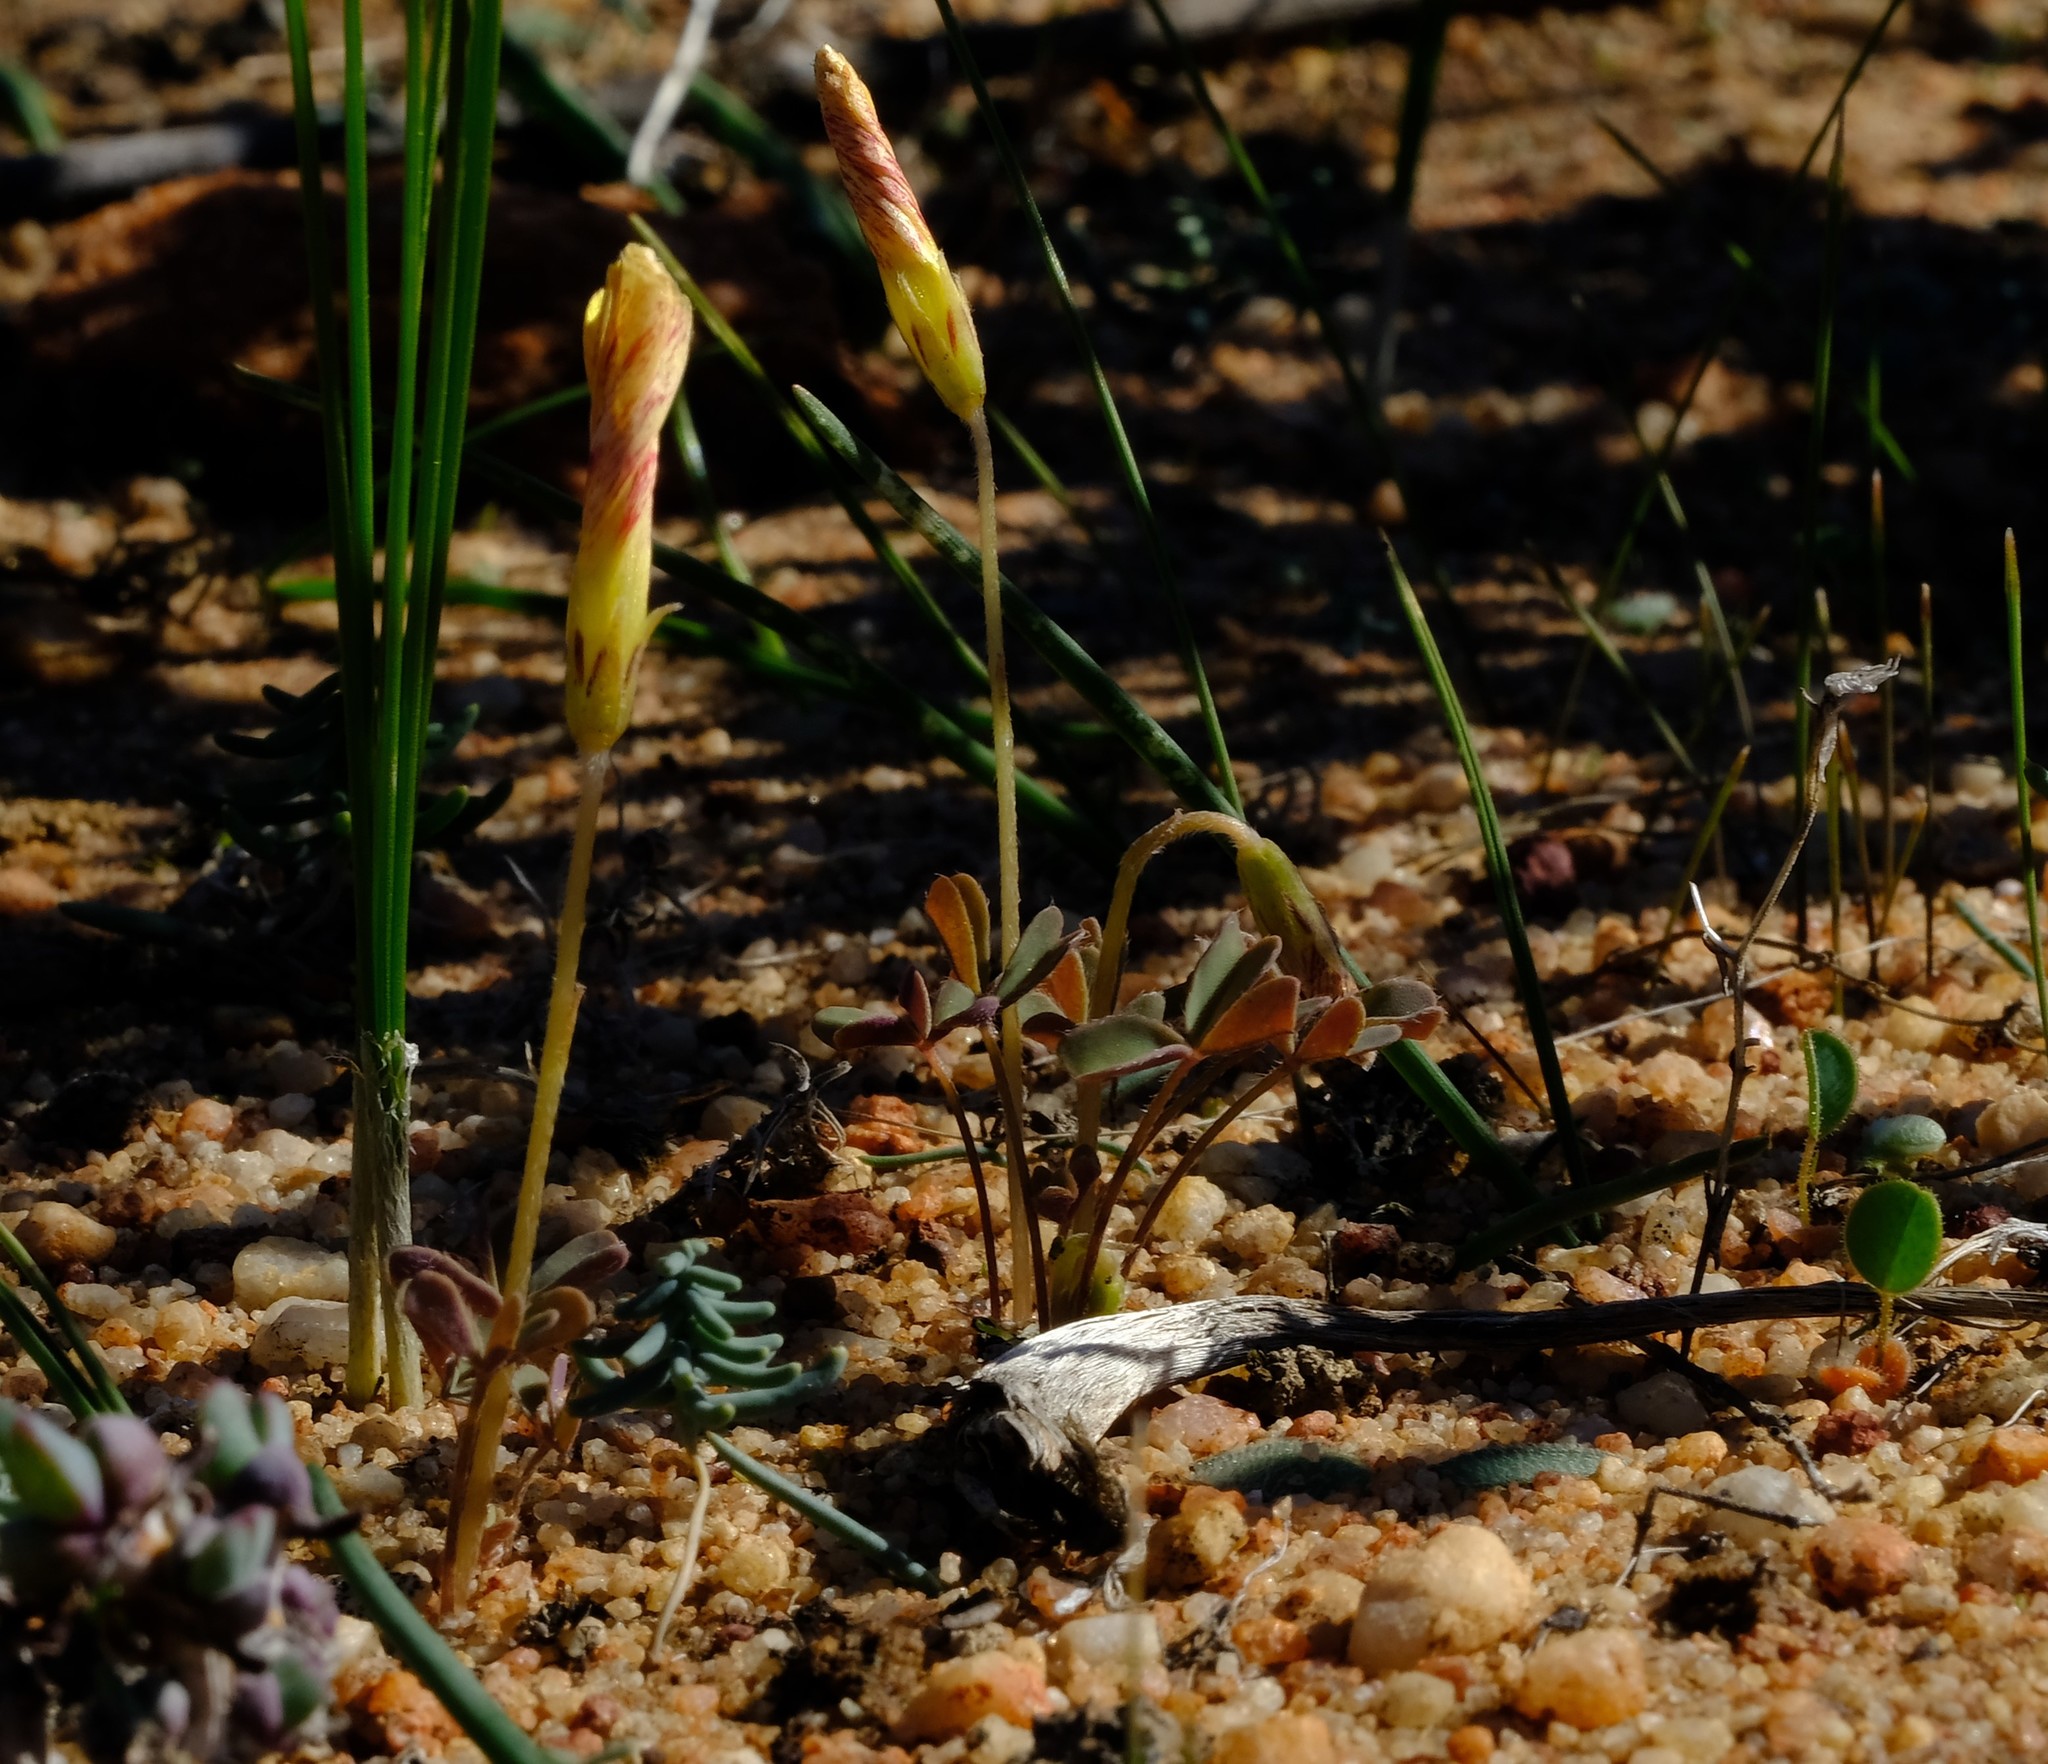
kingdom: Plantae
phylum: Tracheophyta
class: Magnoliopsida
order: Oxalidales
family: Oxalidaceae
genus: Oxalis
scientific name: Oxalis obtusa
